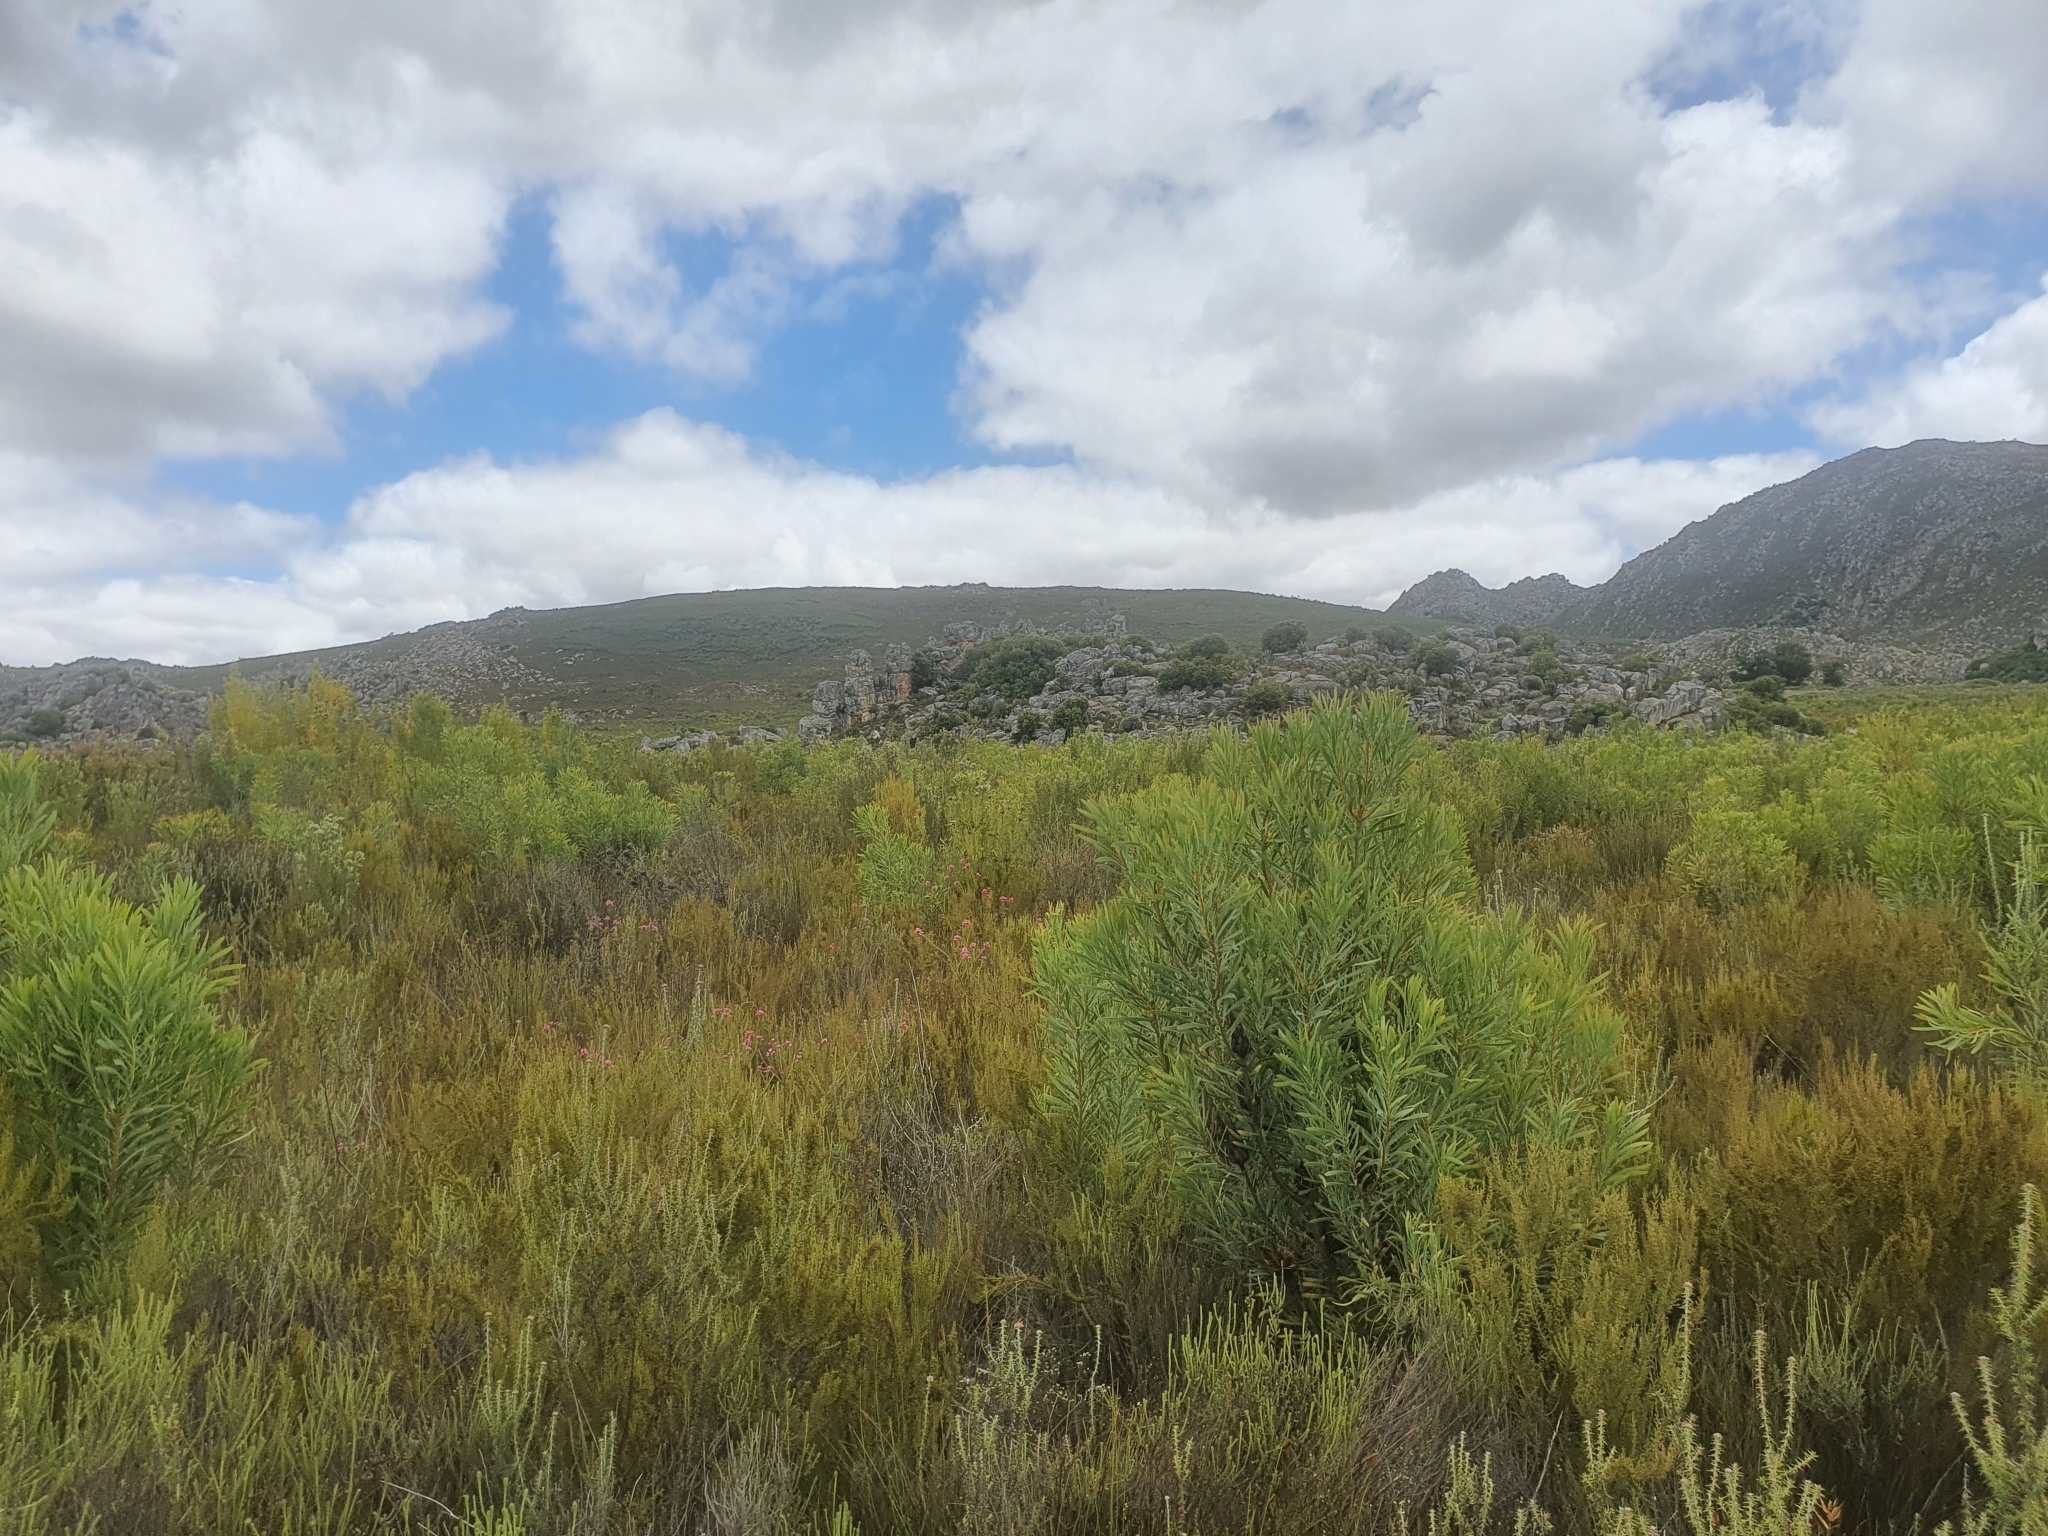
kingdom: Plantae
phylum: Tracheophyta
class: Magnoliopsida
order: Proteales
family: Proteaceae
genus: Protea
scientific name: Protea repens
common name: Sugarbush
